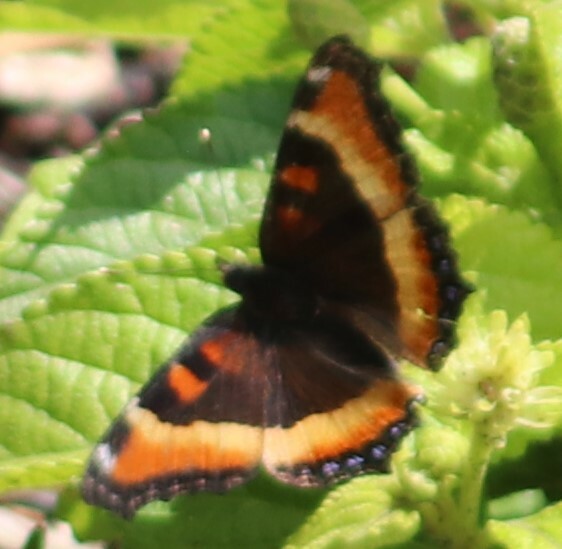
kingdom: Animalia
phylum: Arthropoda
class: Insecta
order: Lepidoptera
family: Nymphalidae
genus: Aglais
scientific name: Aglais milberti
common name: Milbert's tortoiseshell
